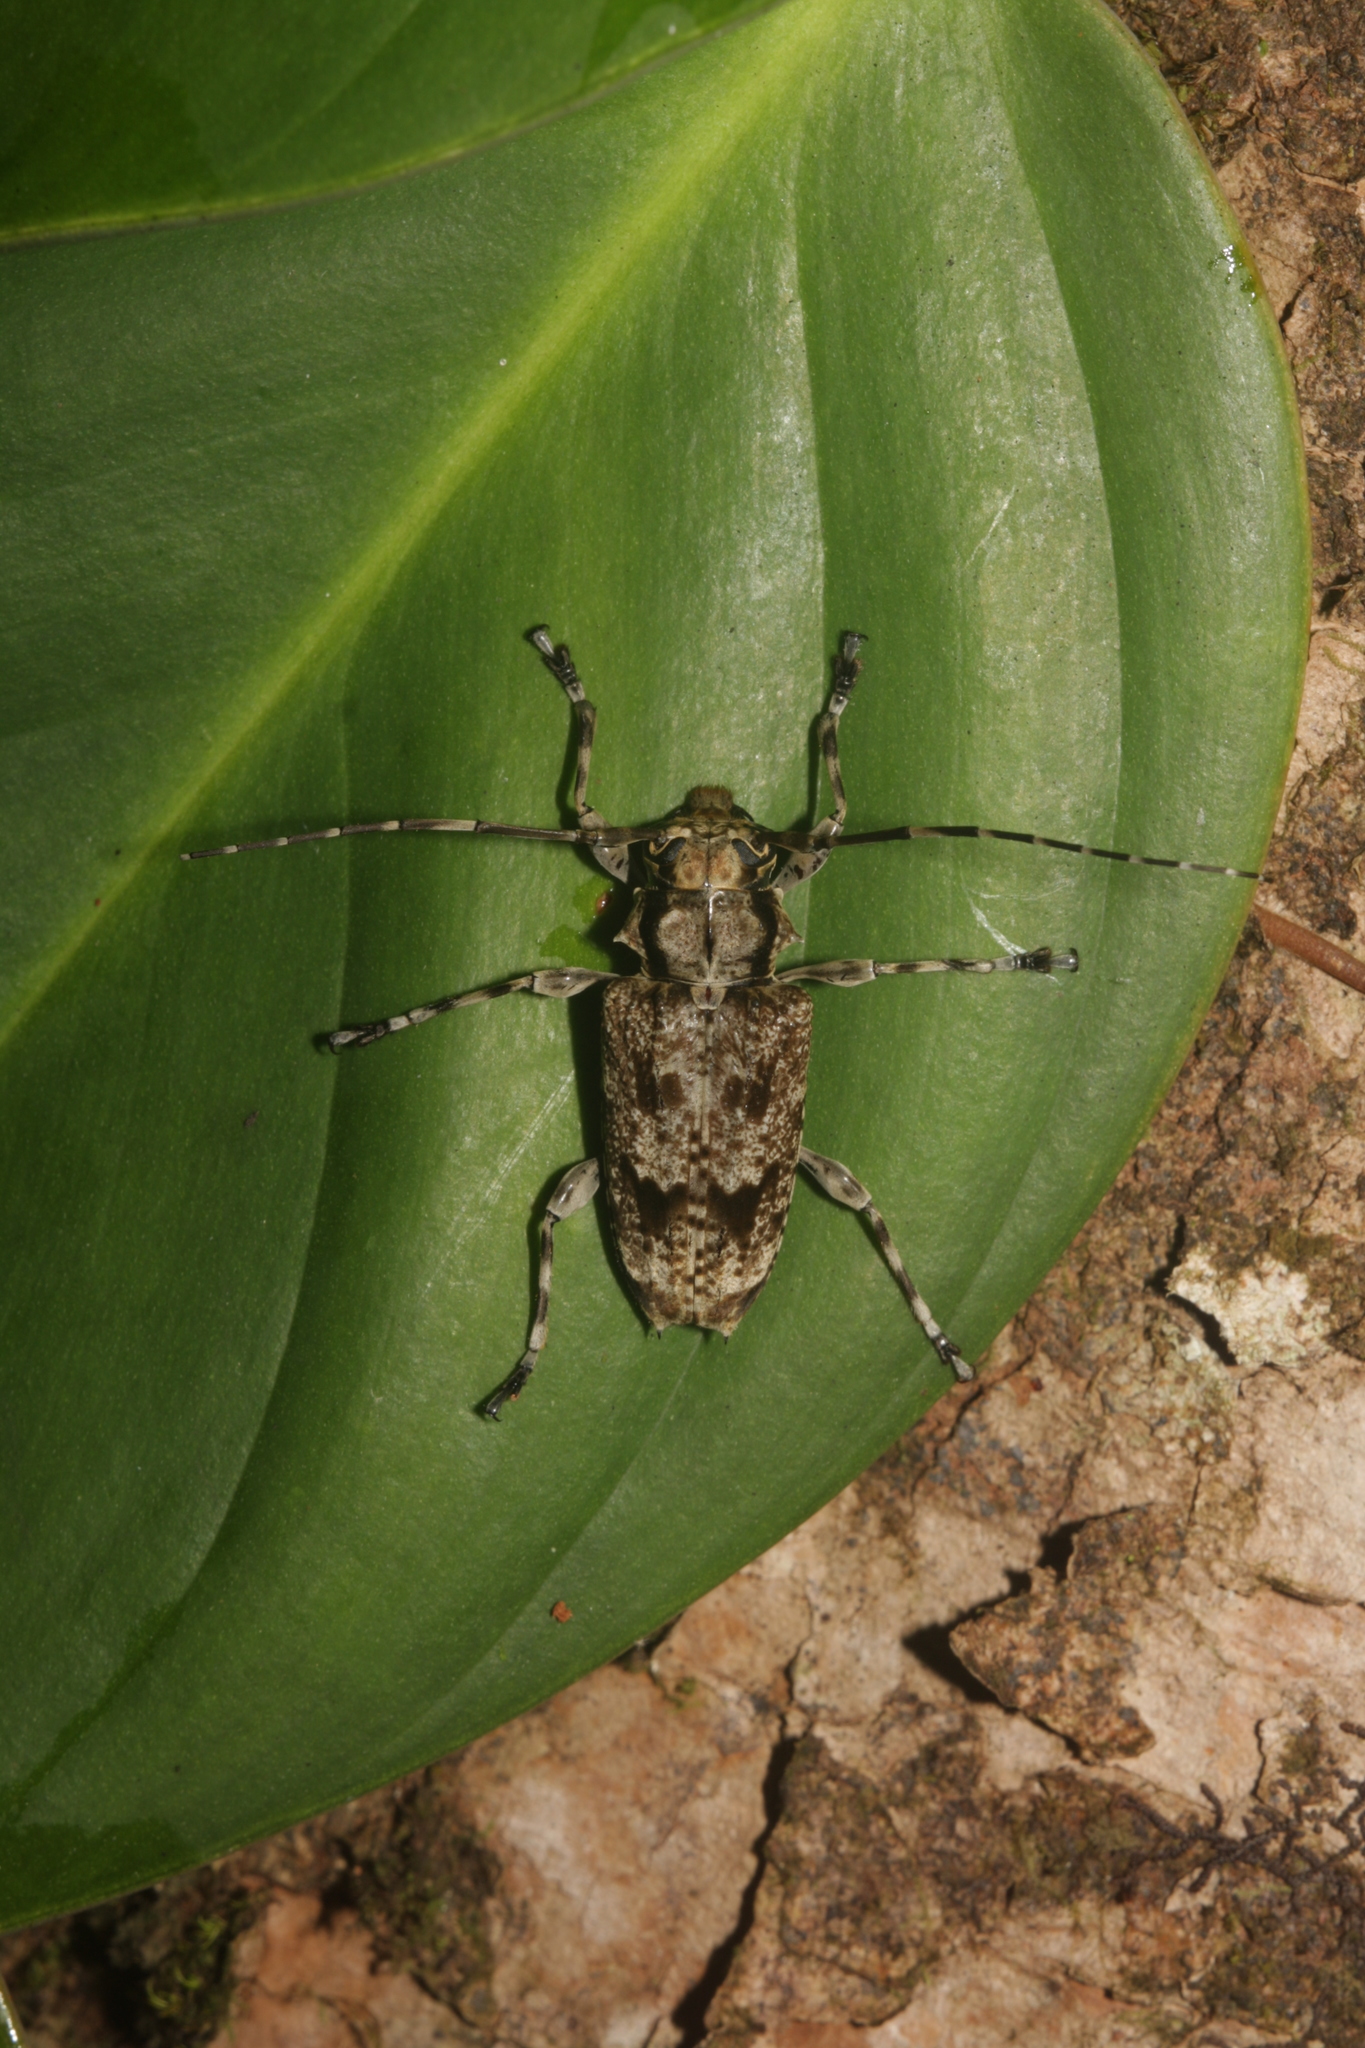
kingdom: Animalia
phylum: Arthropoda
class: Insecta
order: Coleoptera
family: Cerambycidae
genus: Psapharochrus
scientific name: Psapharochrus bivittus
